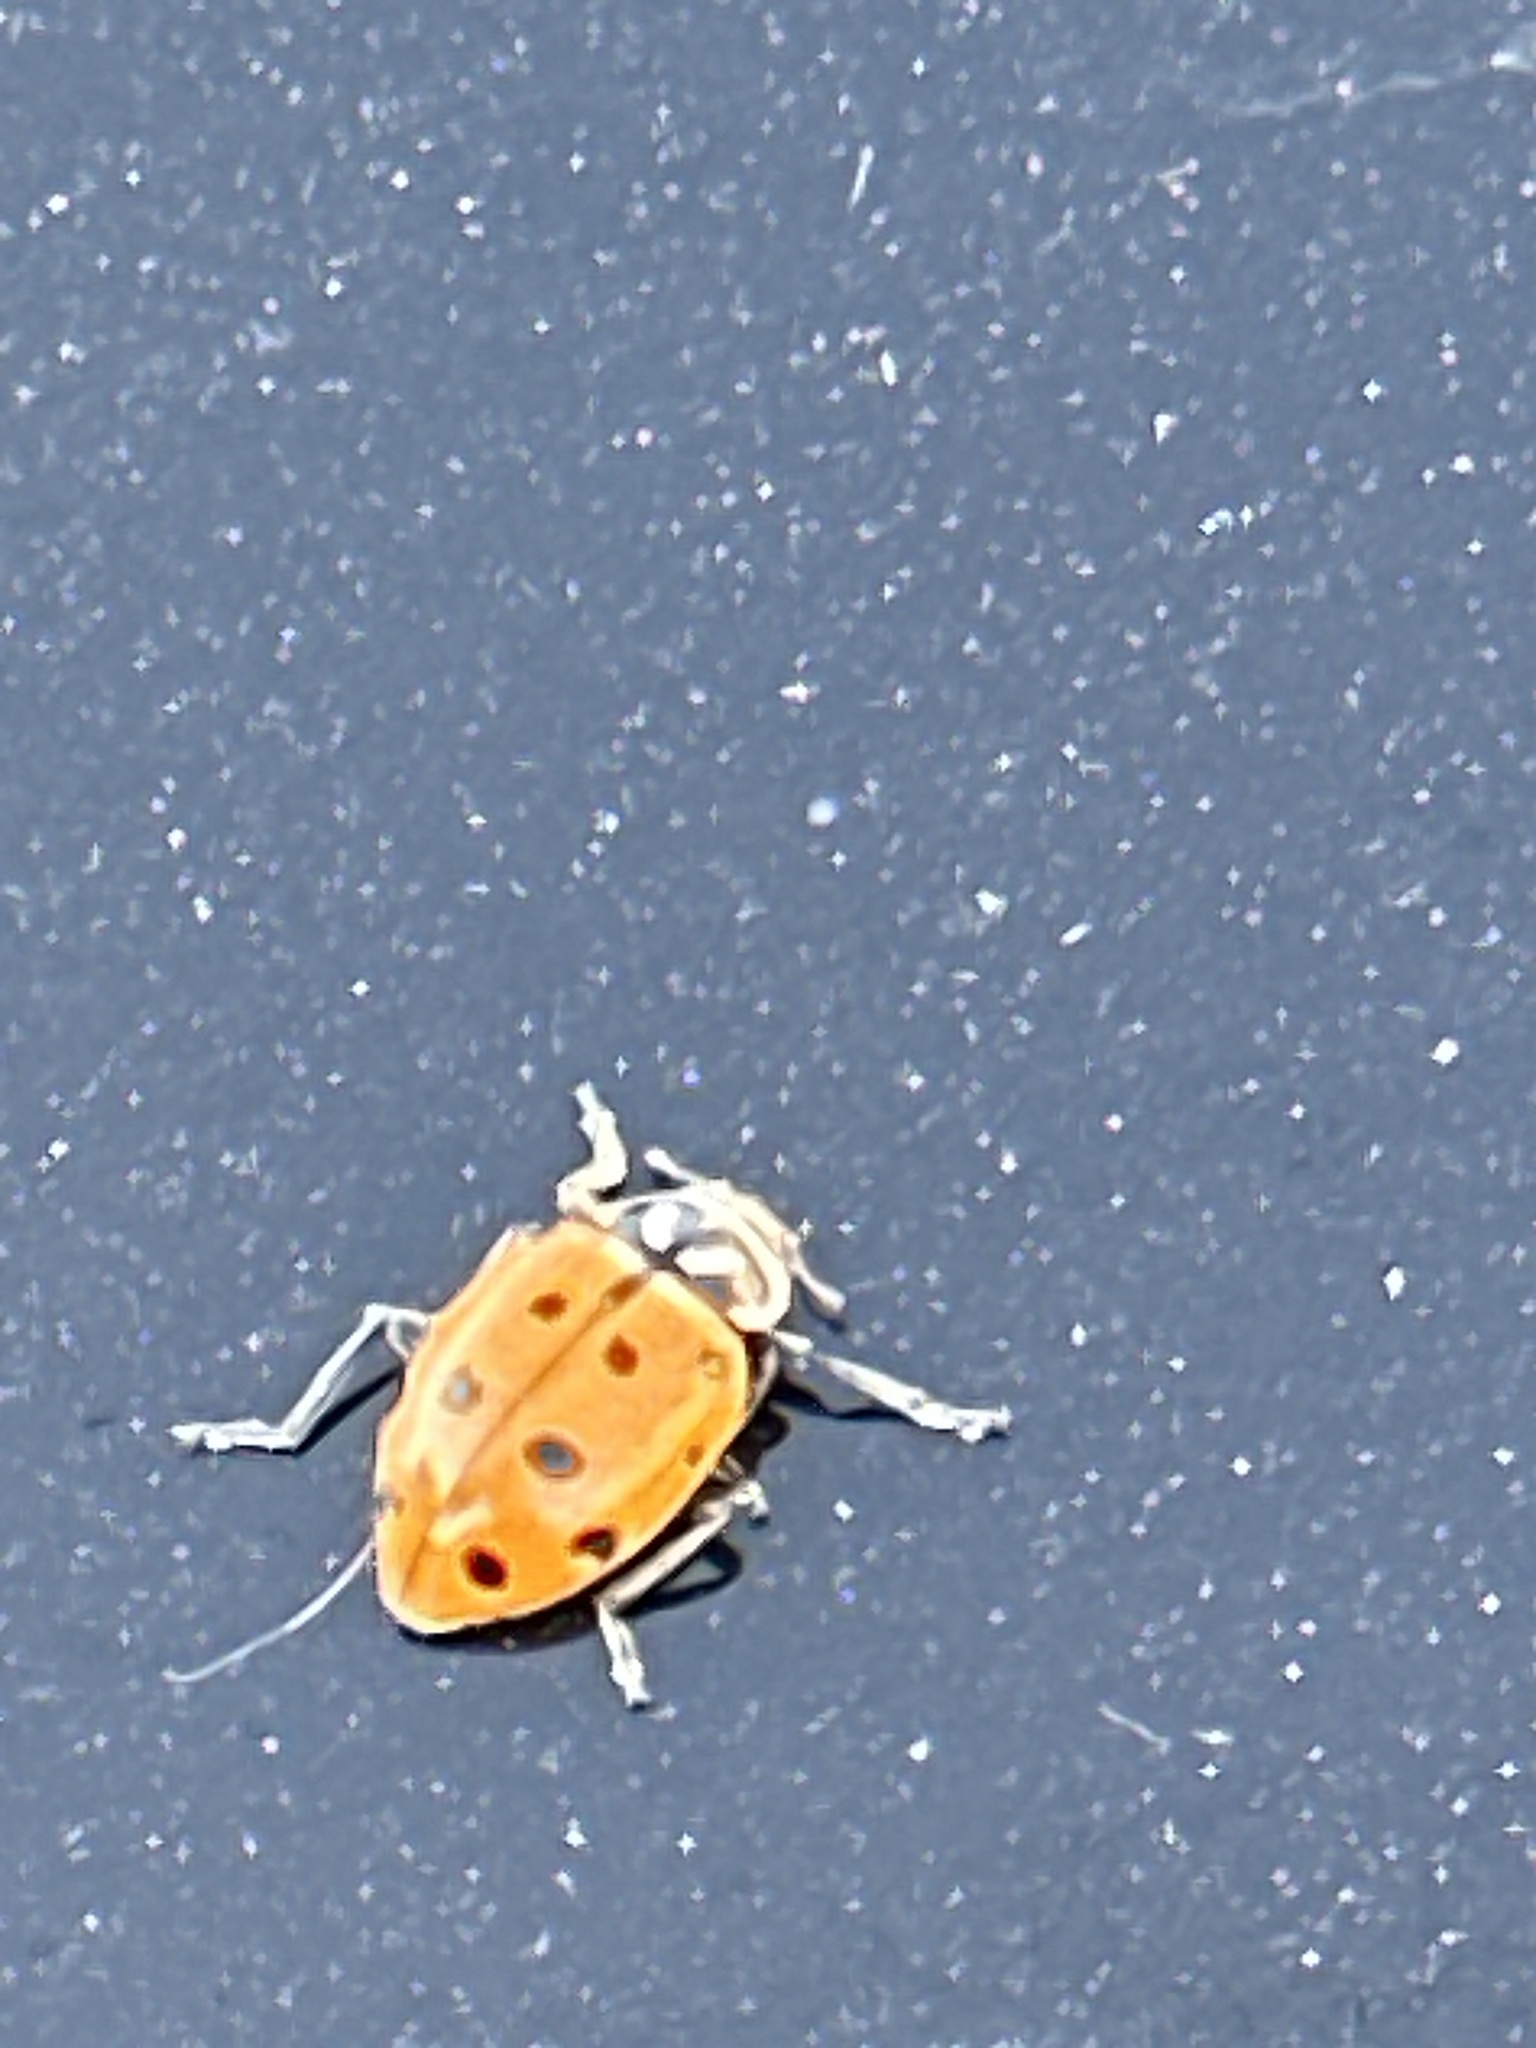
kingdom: Animalia
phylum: Arthropoda
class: Insecta
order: Coleoptera
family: Coccinellidae
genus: Hippodamia
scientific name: Hippodamia convergens
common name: Convergent lady beetle
